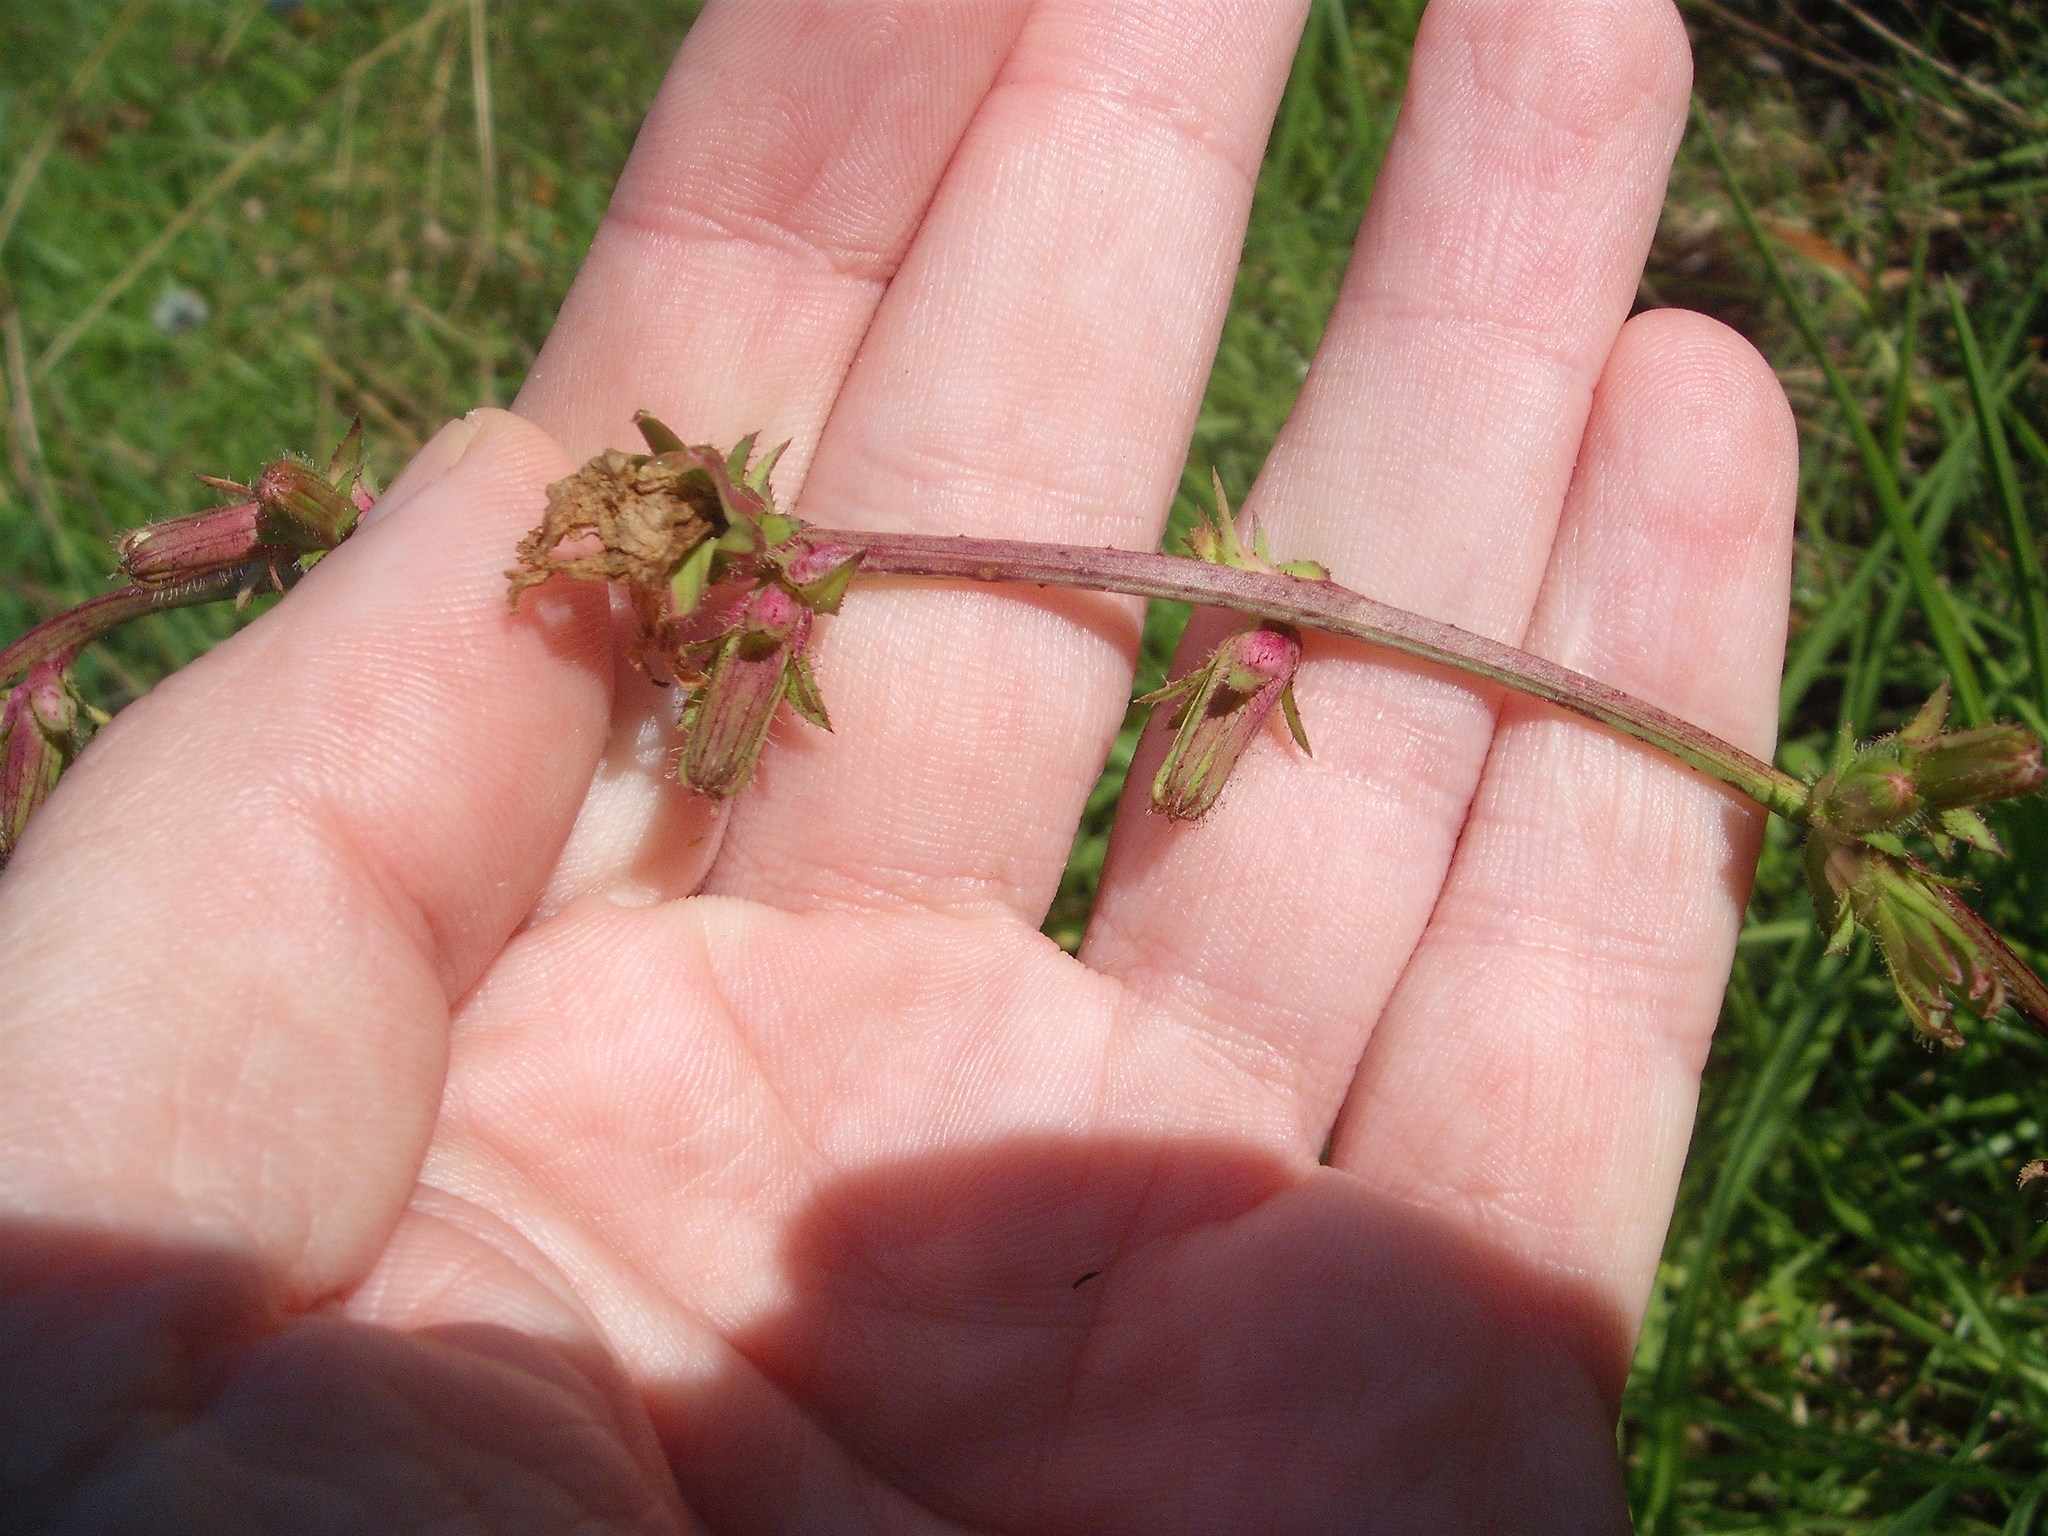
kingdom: Plantae
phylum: Tracheophyta
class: Magnoliopsida
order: Asterales
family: Asteraceae
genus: Cichorium
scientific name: Cichorium intybus
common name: Chicory
